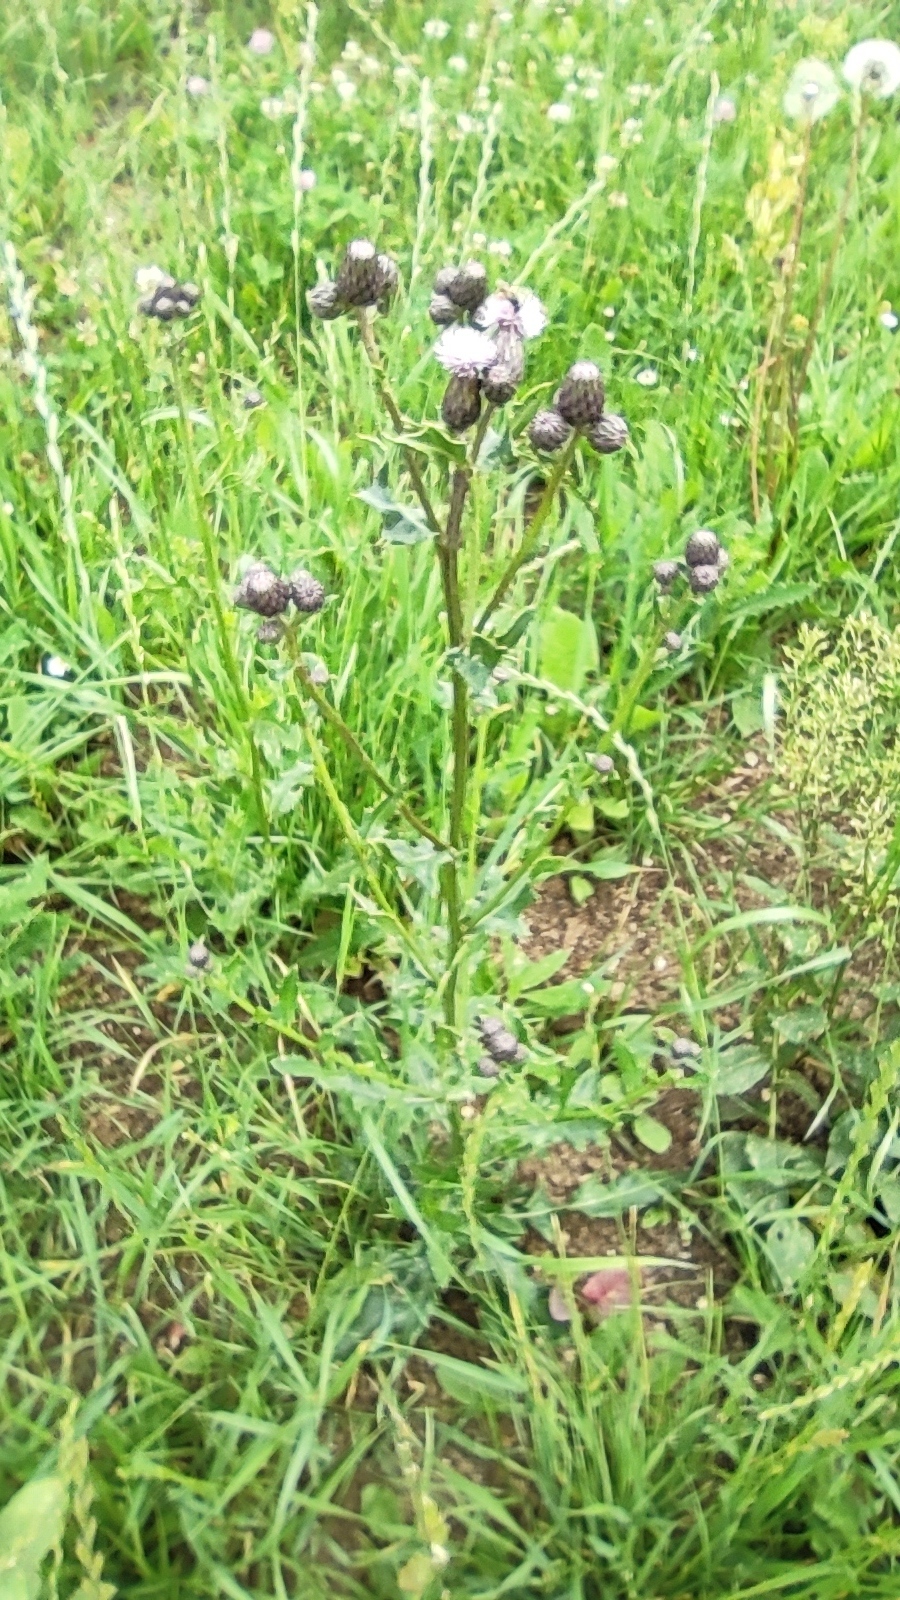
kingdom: Plantae
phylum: Tracheophyta
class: Magnoliopsida
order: Asterales
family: Asteraceae
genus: Cirsium
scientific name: Cirsium arvense
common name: Creeping thistle
